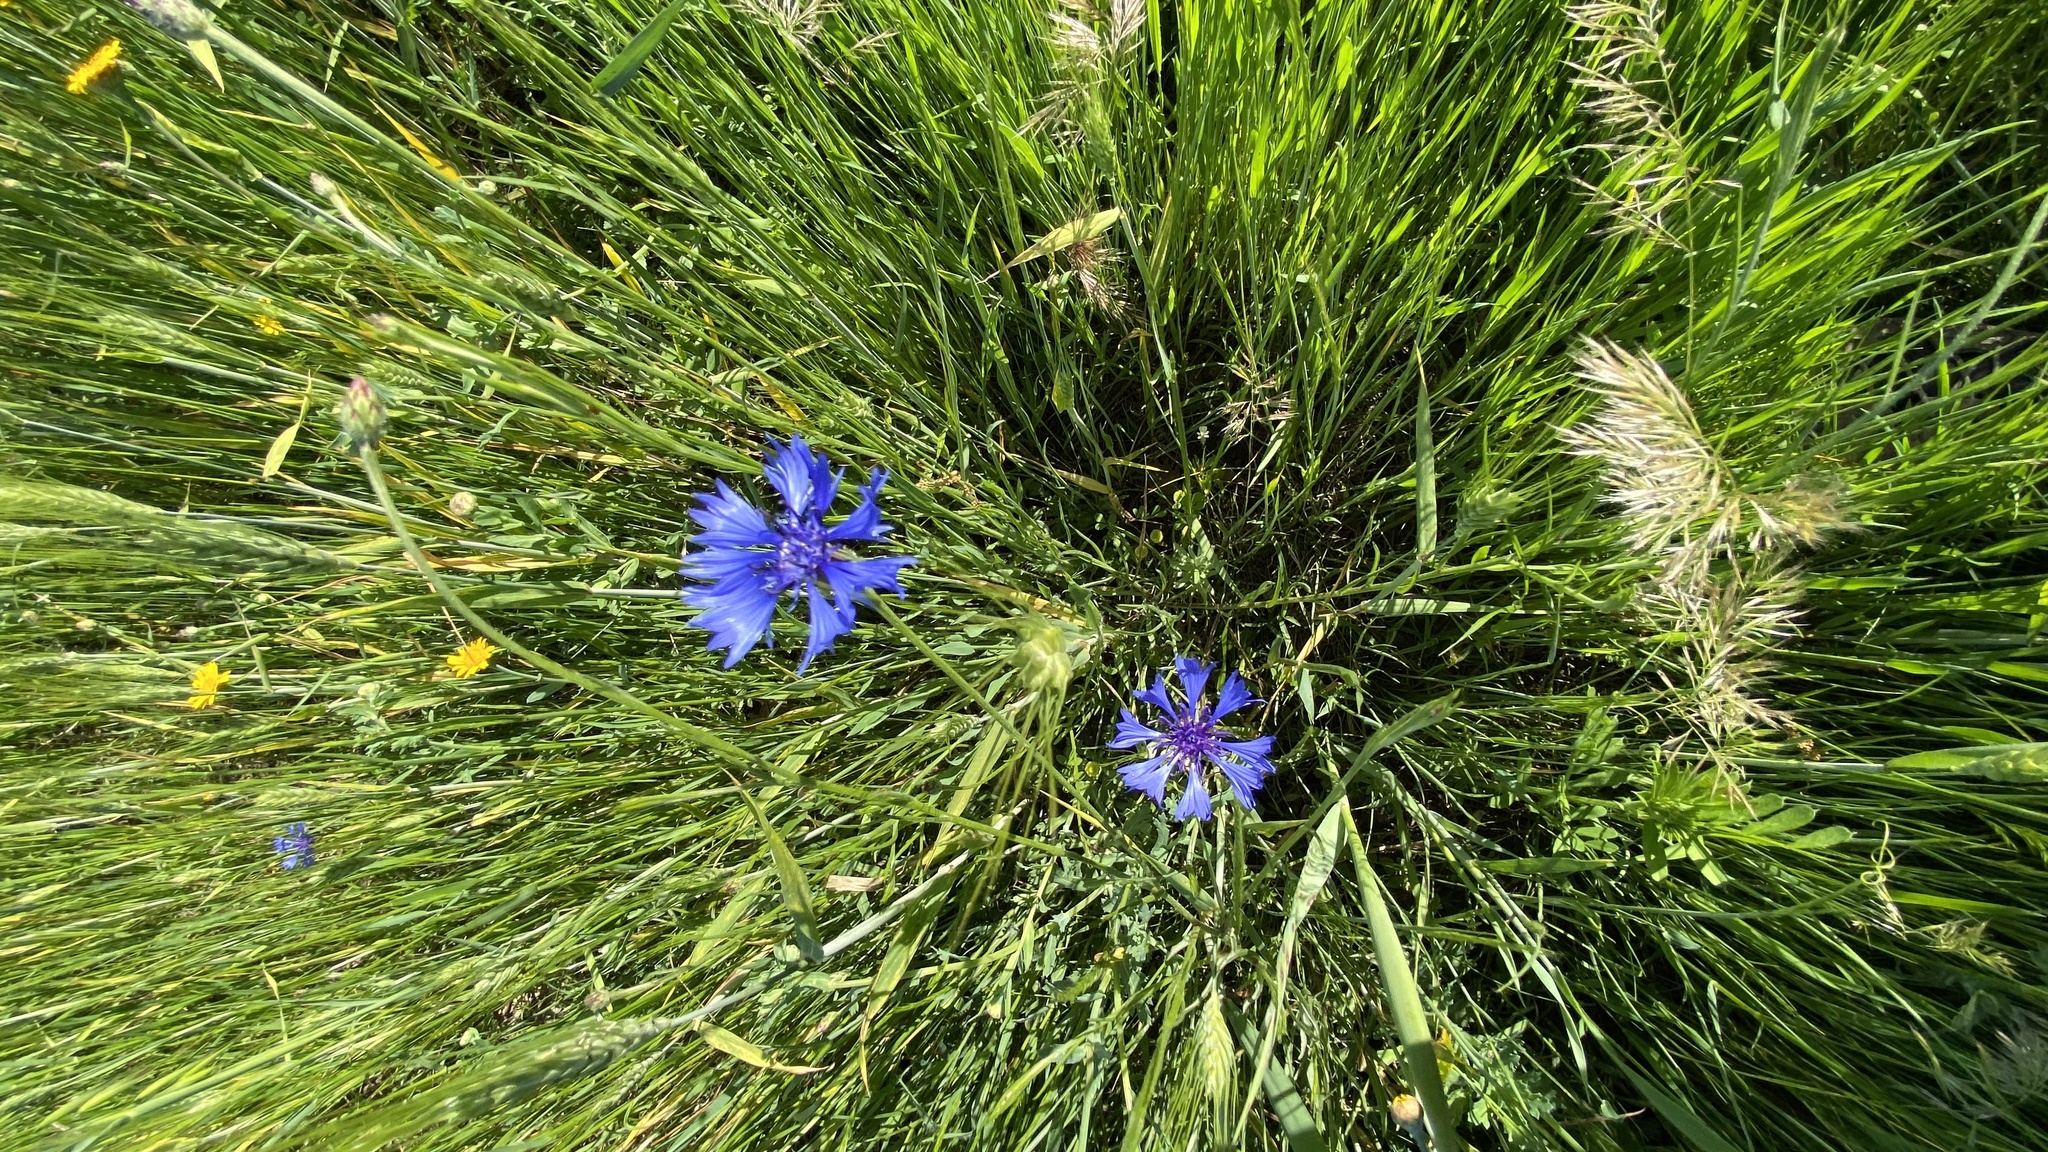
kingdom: Plantae
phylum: Tracheophyta
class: Magnoliopsida
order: Asterales
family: Asteraceae
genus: Centaurea
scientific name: Centaurea cyanus
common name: Cornflower
